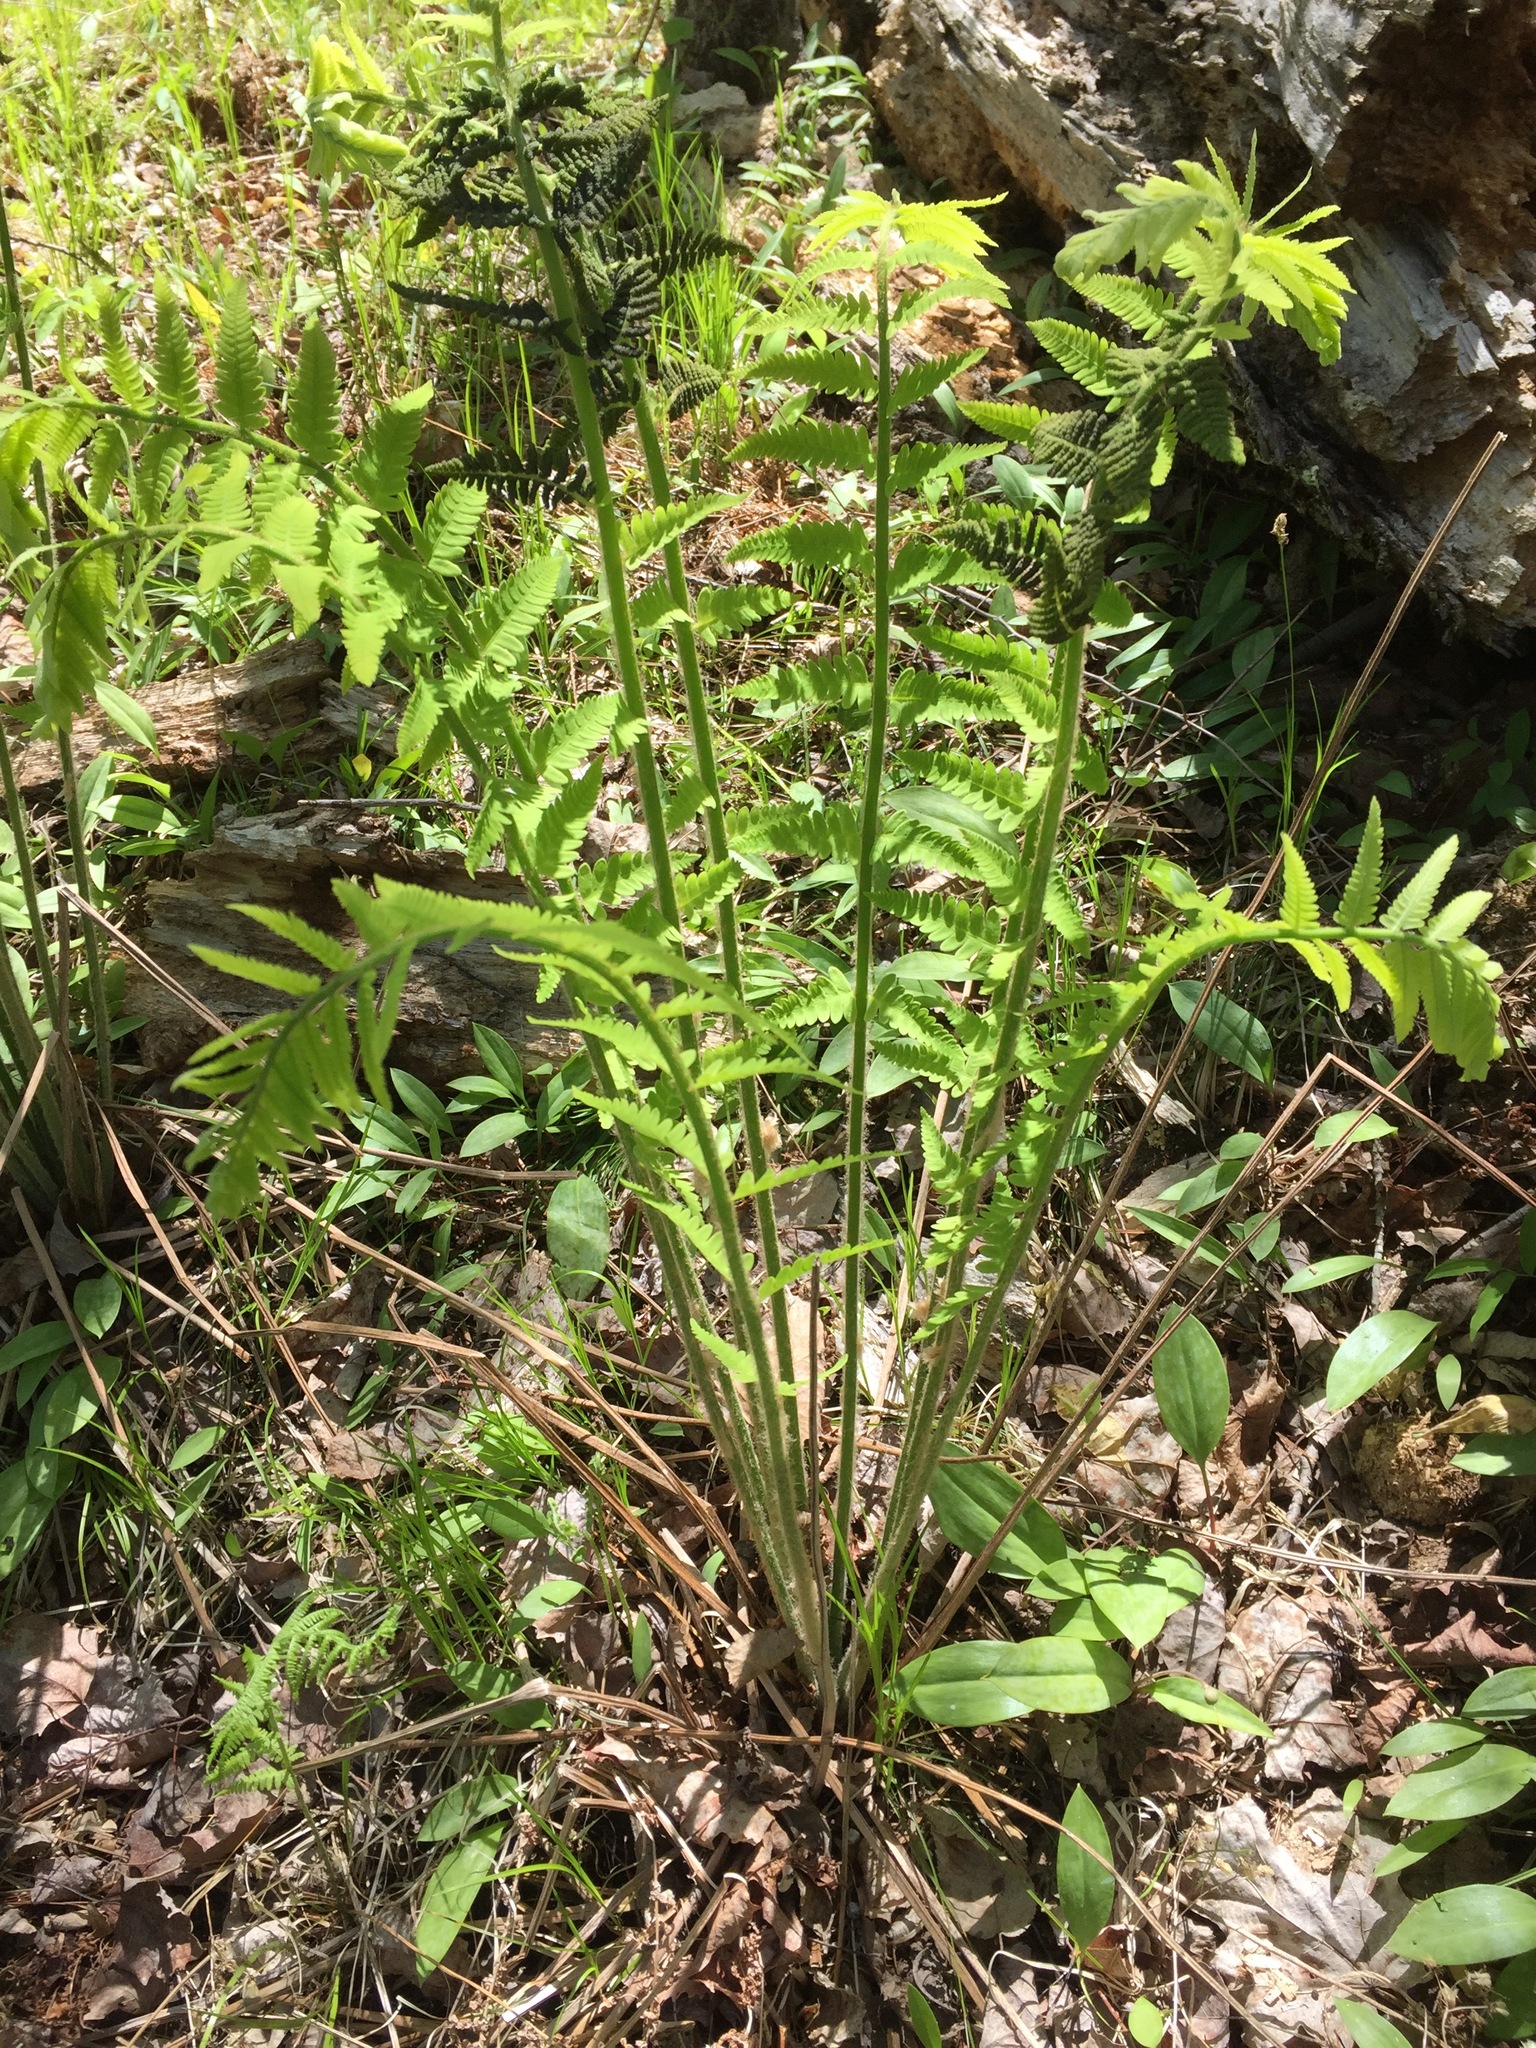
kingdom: Plantae
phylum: Tracheophyta
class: Polypodiopsida
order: Osmundales
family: Osmundaceae
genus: Claytosmunda
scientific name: Claytosmunda claytoniana
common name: Clayton's fern
